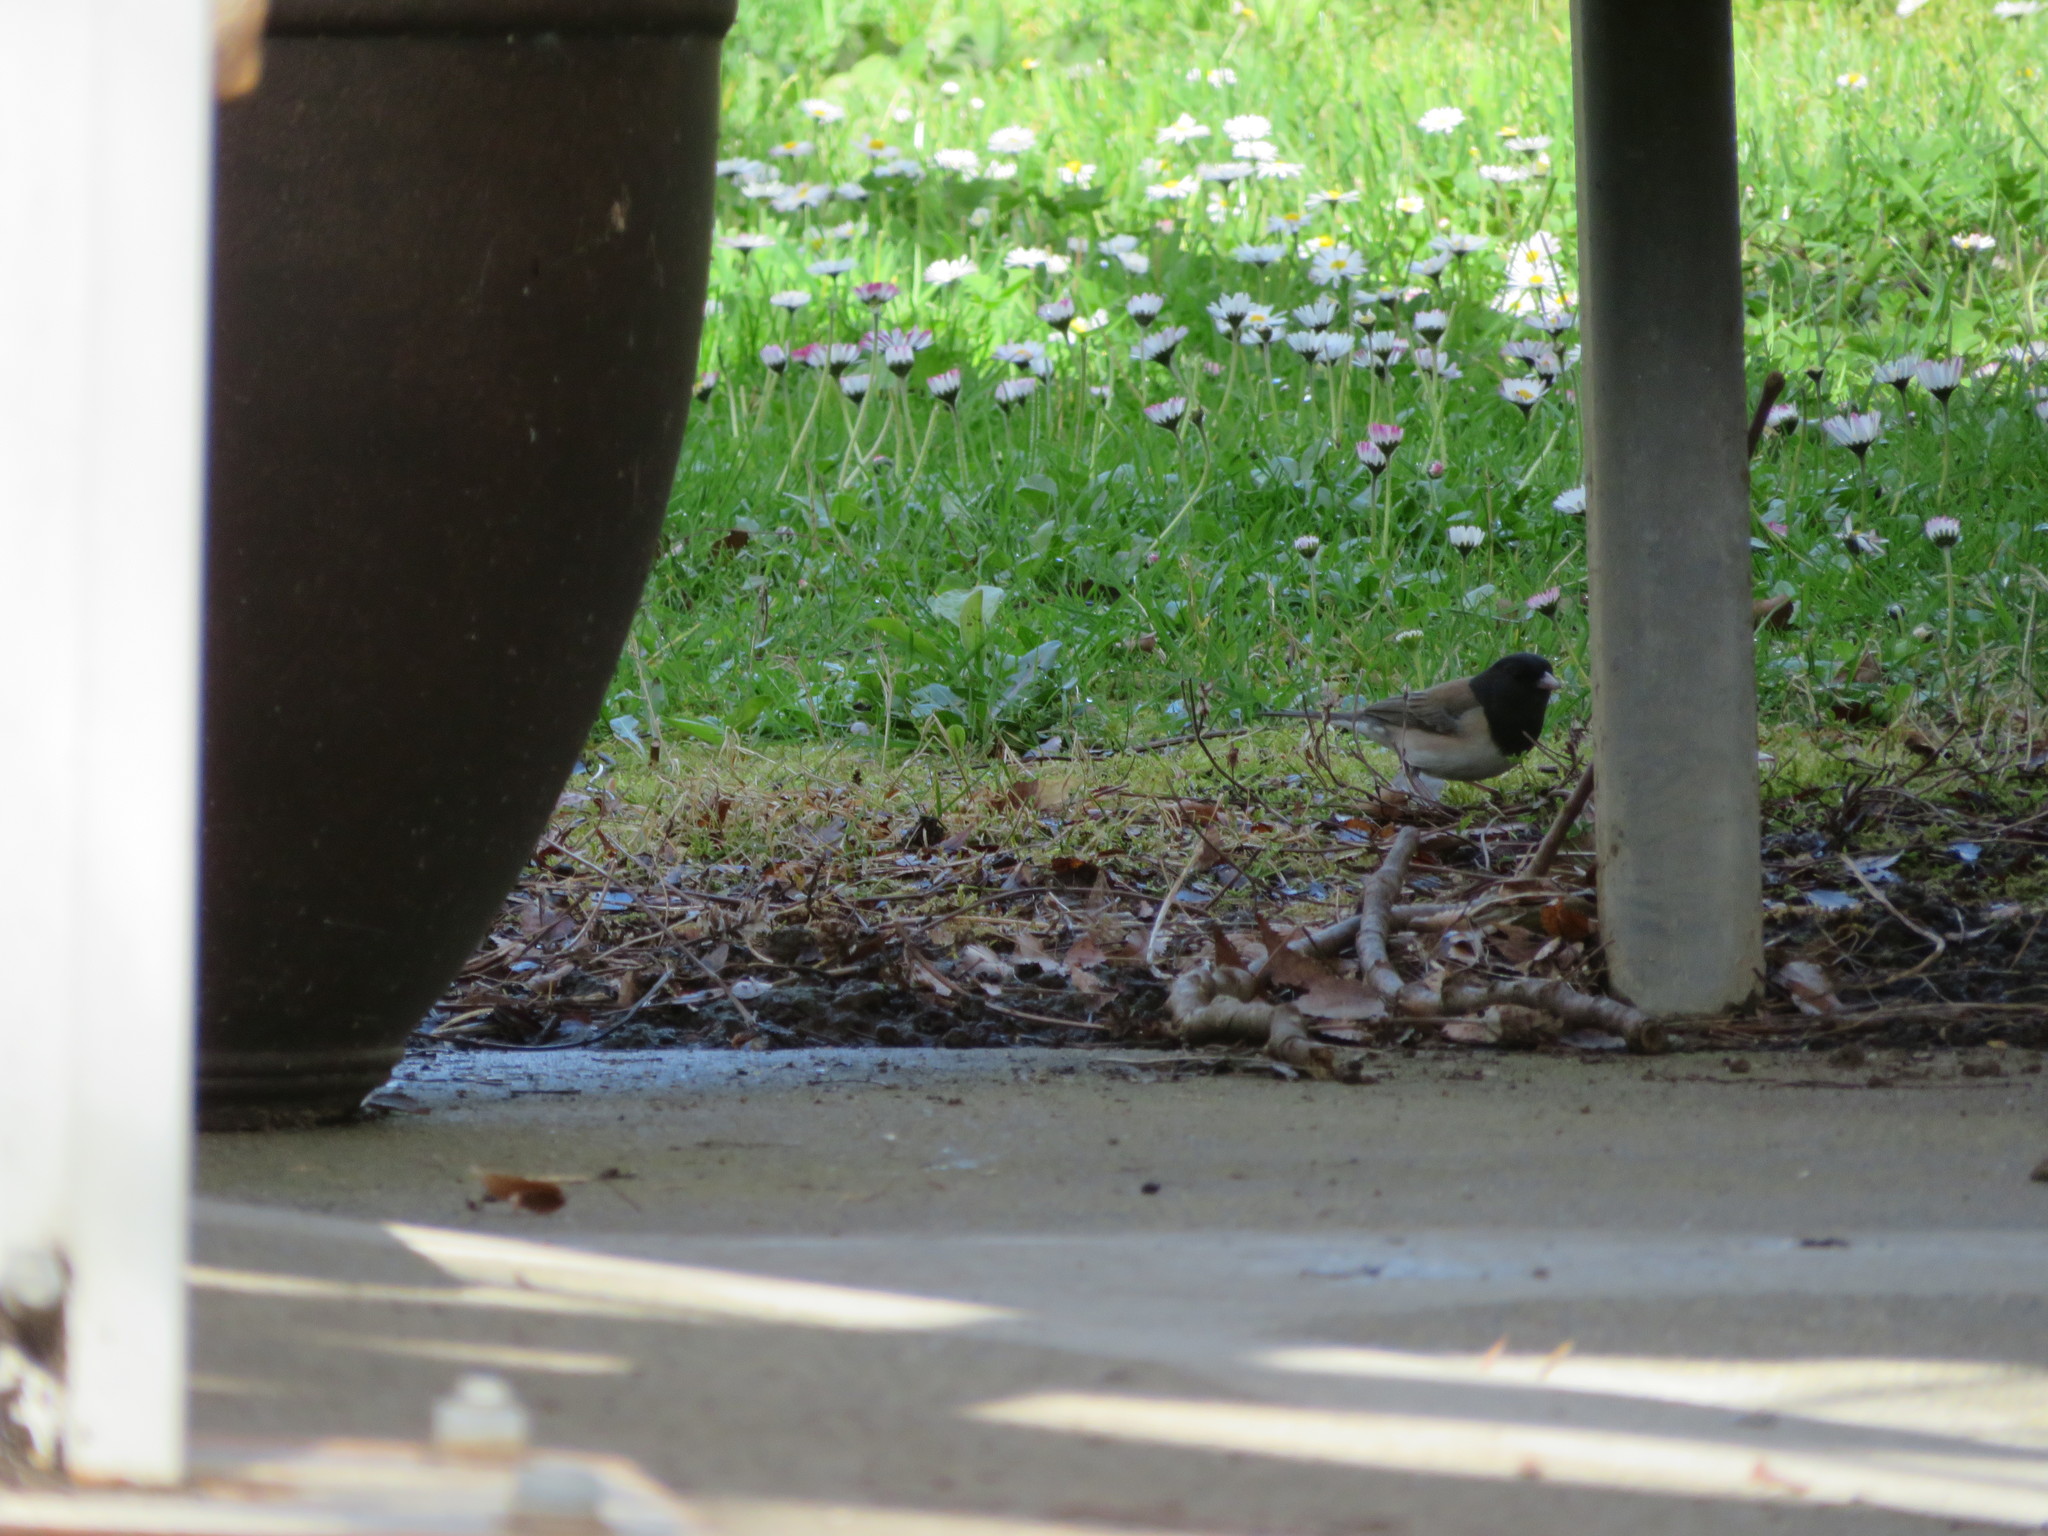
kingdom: Animalia
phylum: Chordata
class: Aves
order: Passeriformes
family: Passerellidae
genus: Junco
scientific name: Junco hyemalis
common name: Dark-eyed junco
